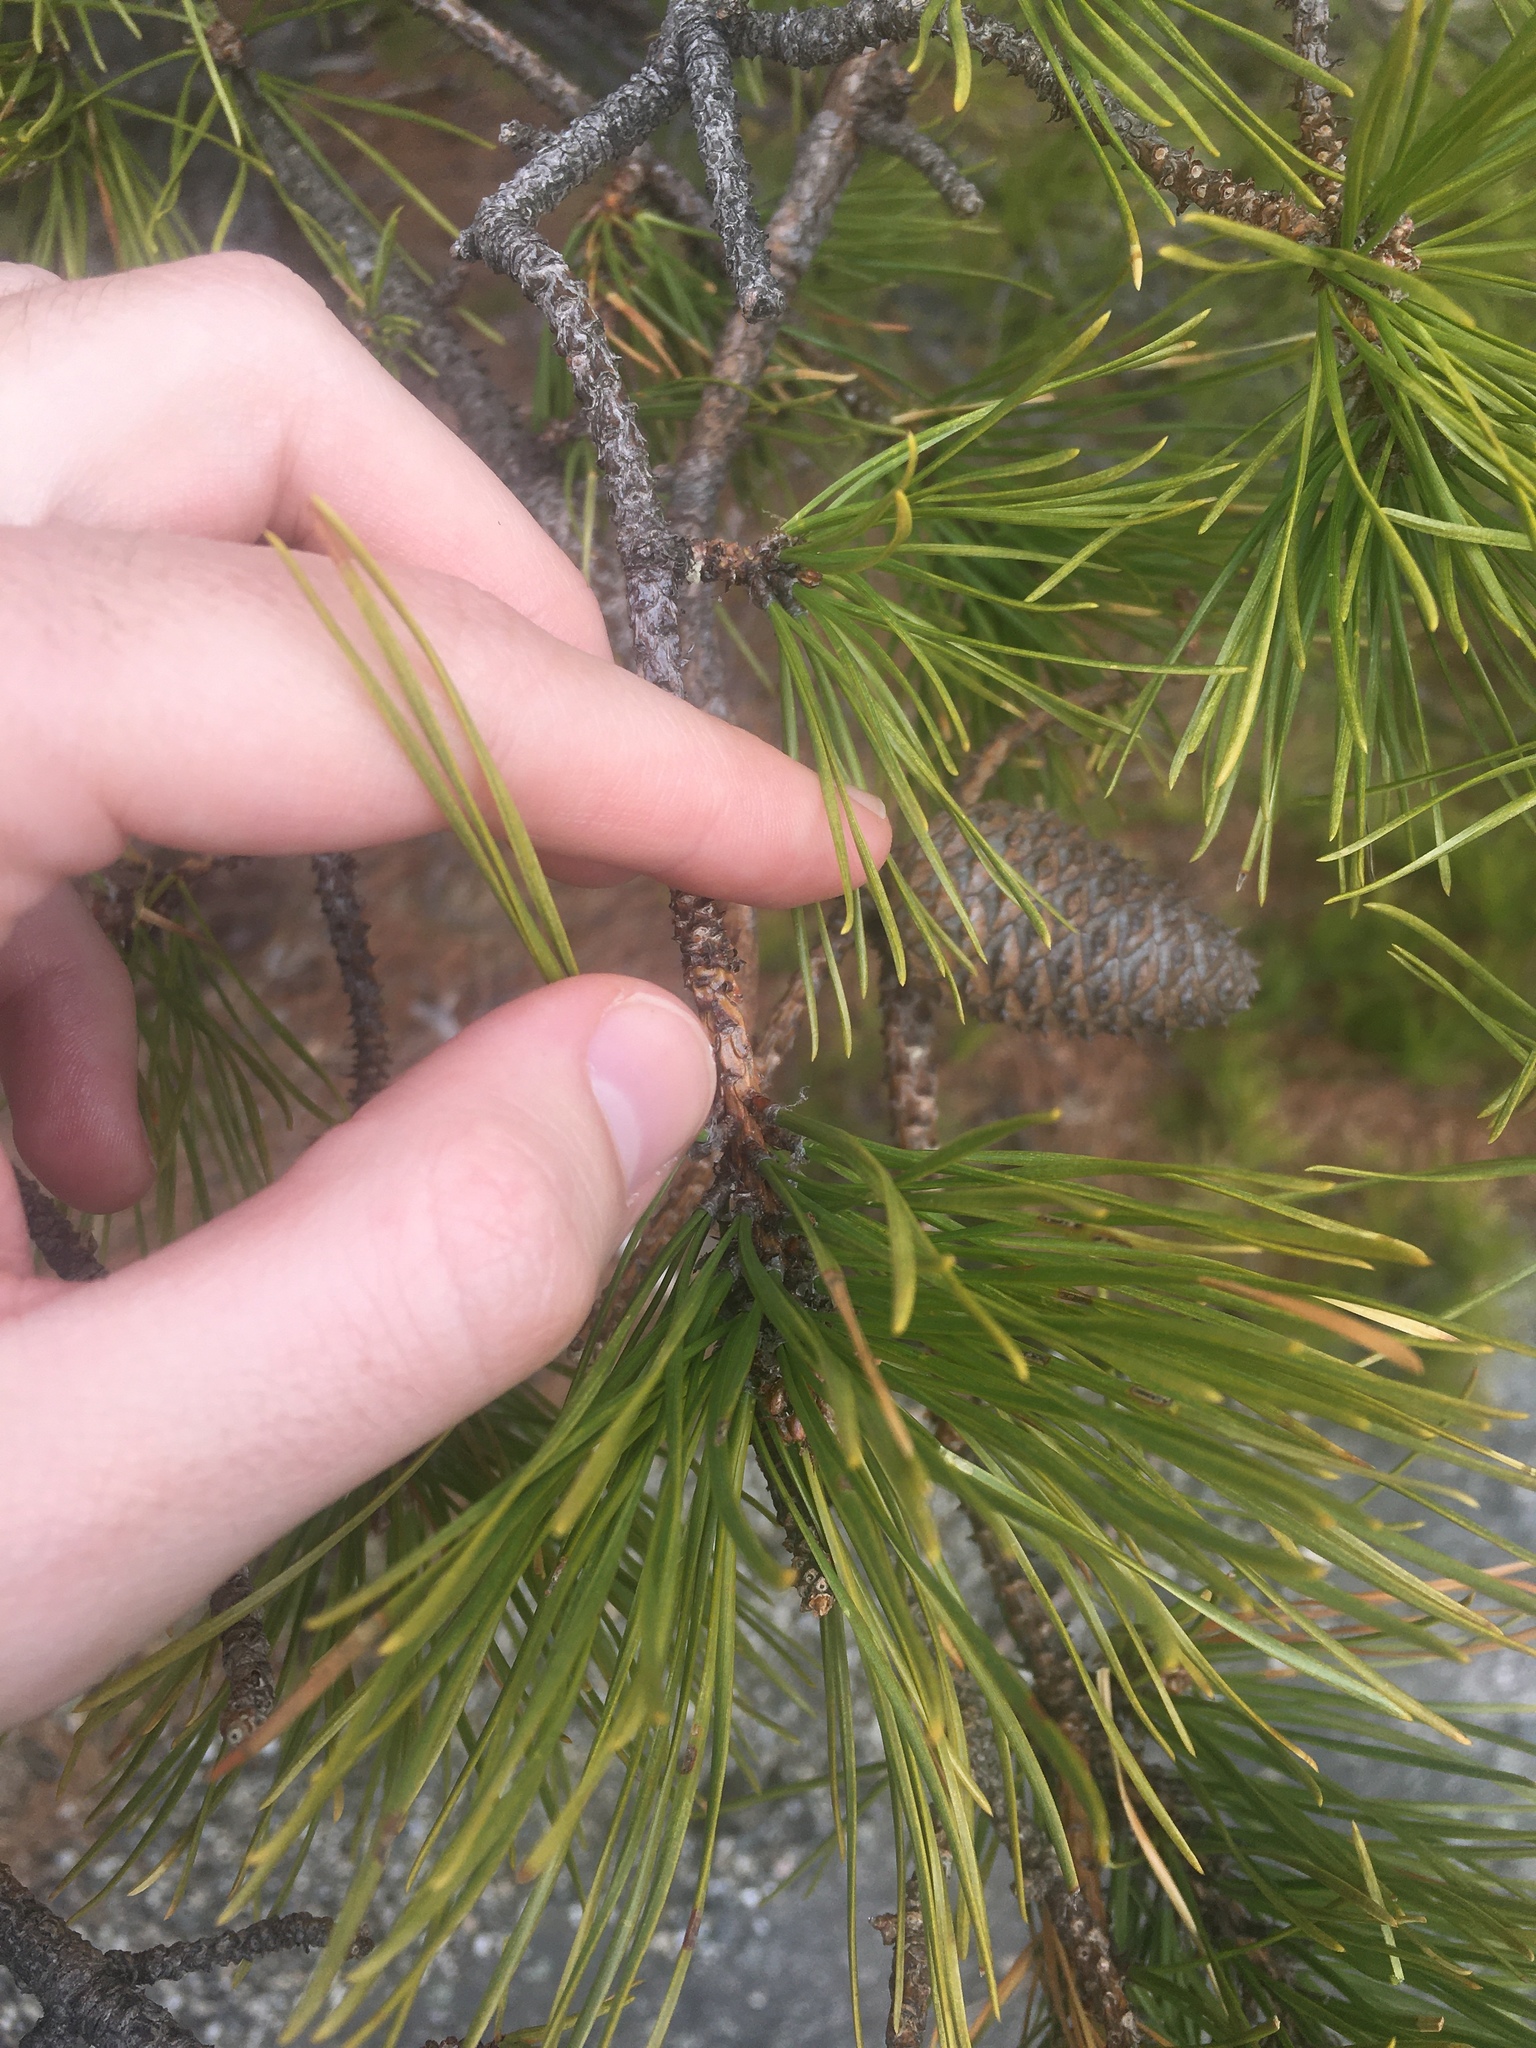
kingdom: Plantae
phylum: Tracheophyta
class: Pinopsida
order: Pinales
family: Pinaceae
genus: Pinus
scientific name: Pinus rigida
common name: Pitch pine
